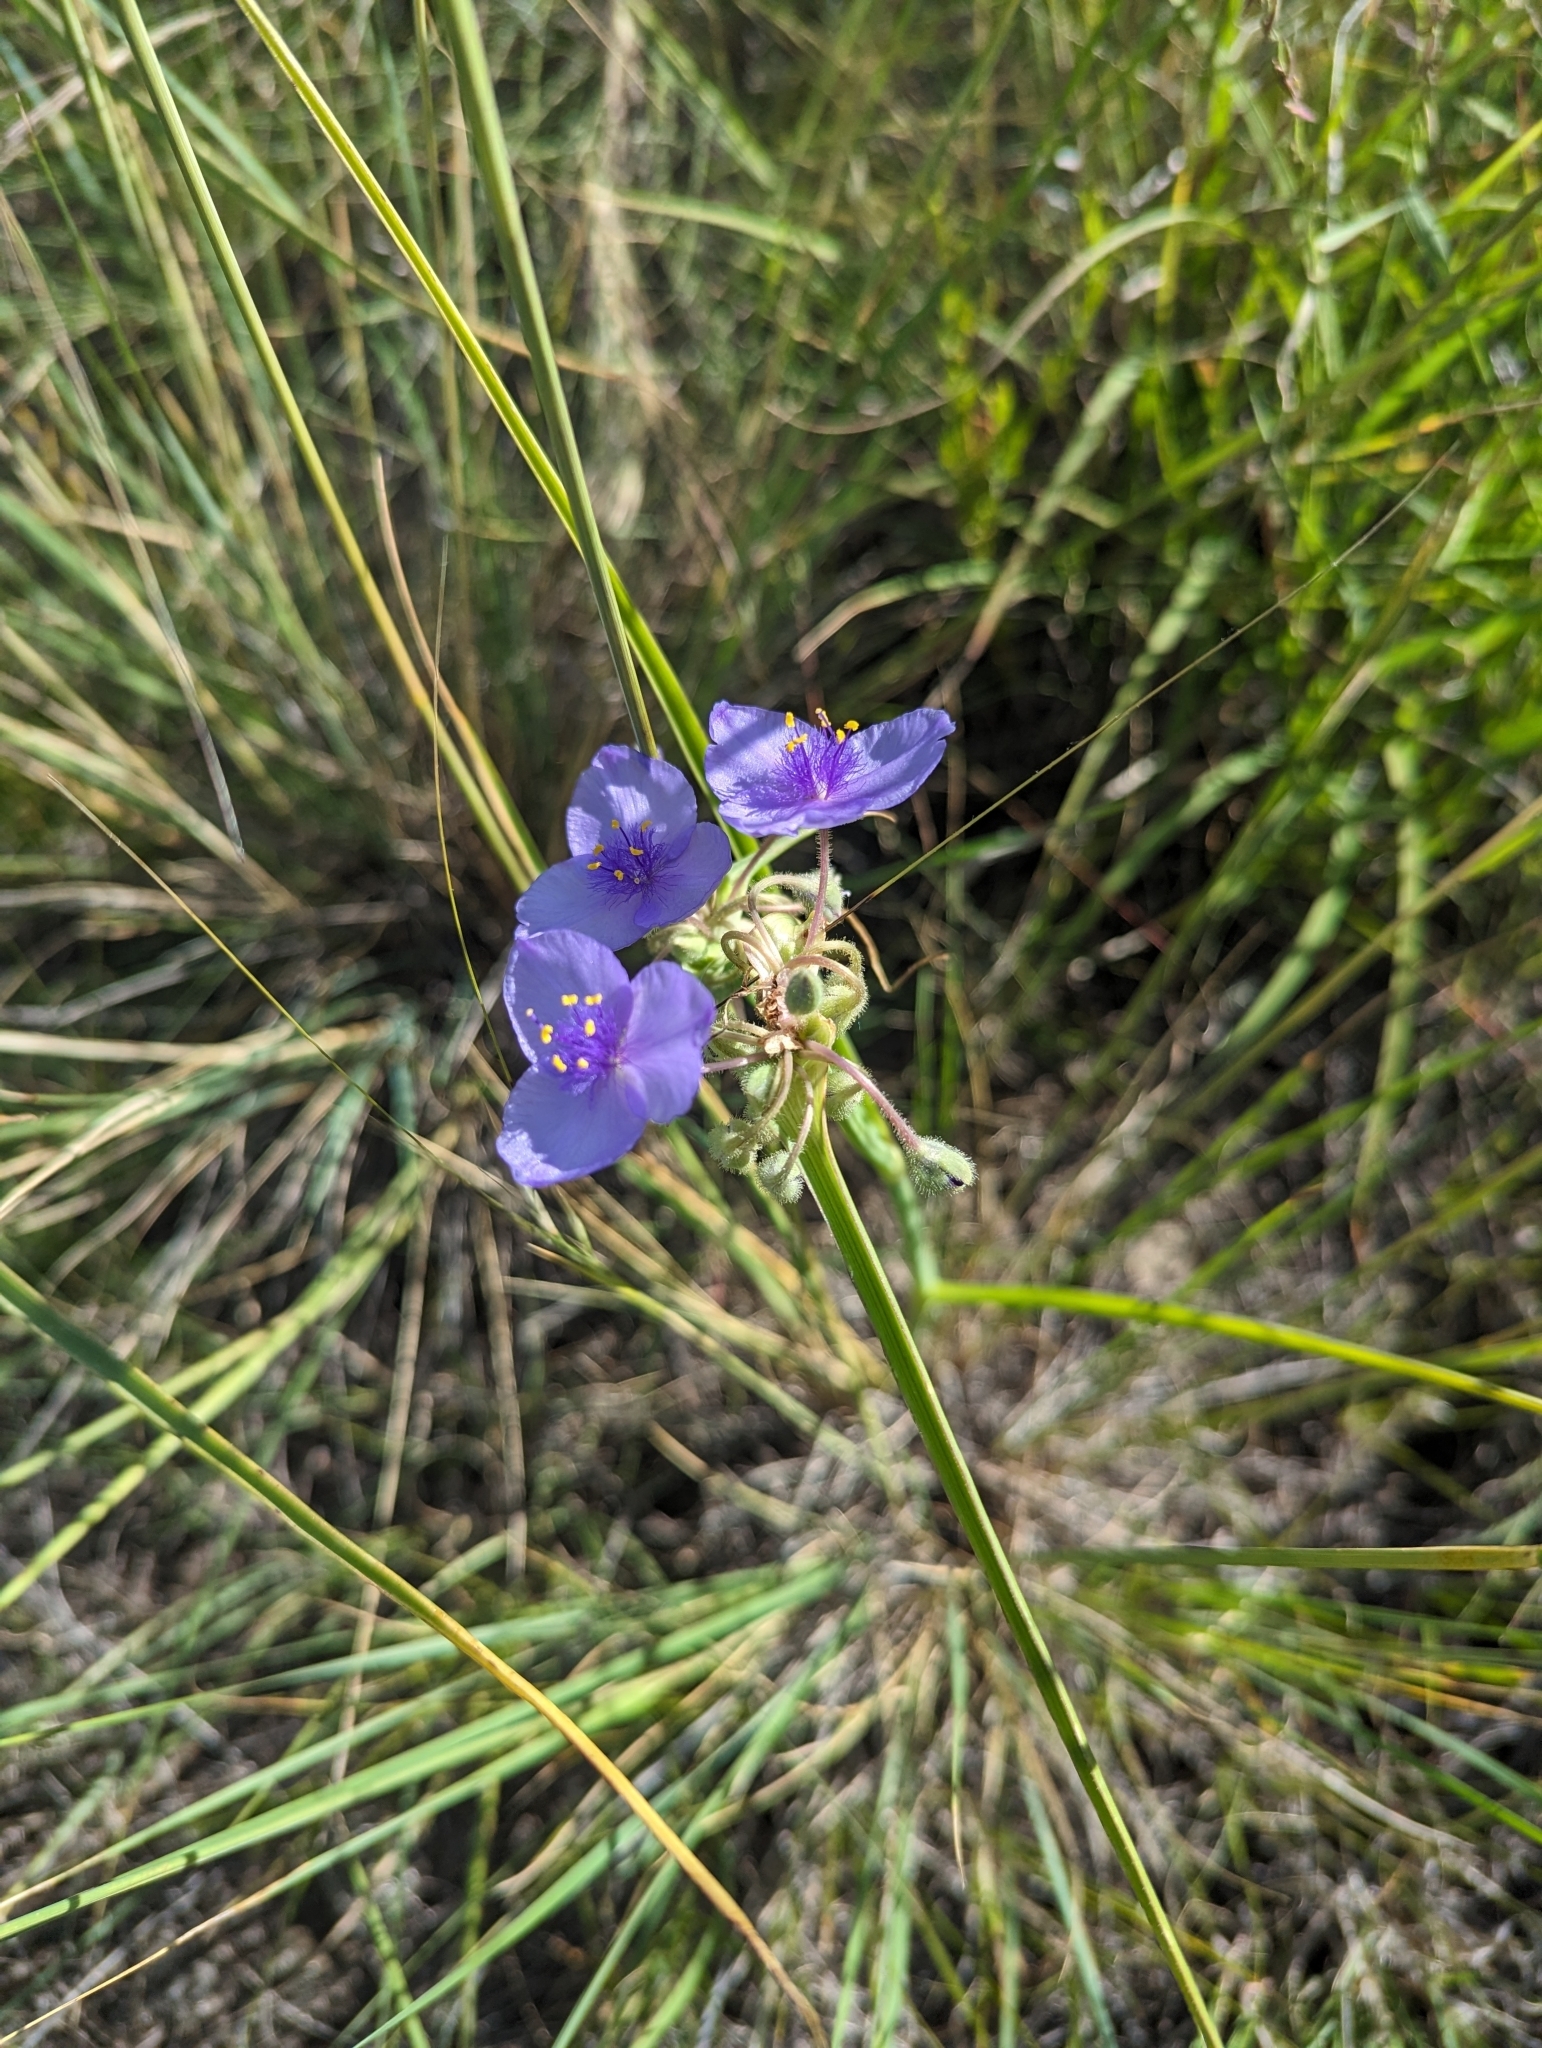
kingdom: Plantae
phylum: Tracheophyta
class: Liliopsida
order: Commelinales
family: Commelinaceae
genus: Tradescantia
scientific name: Tradescantia occidentalis
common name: Prairie spiderwort
